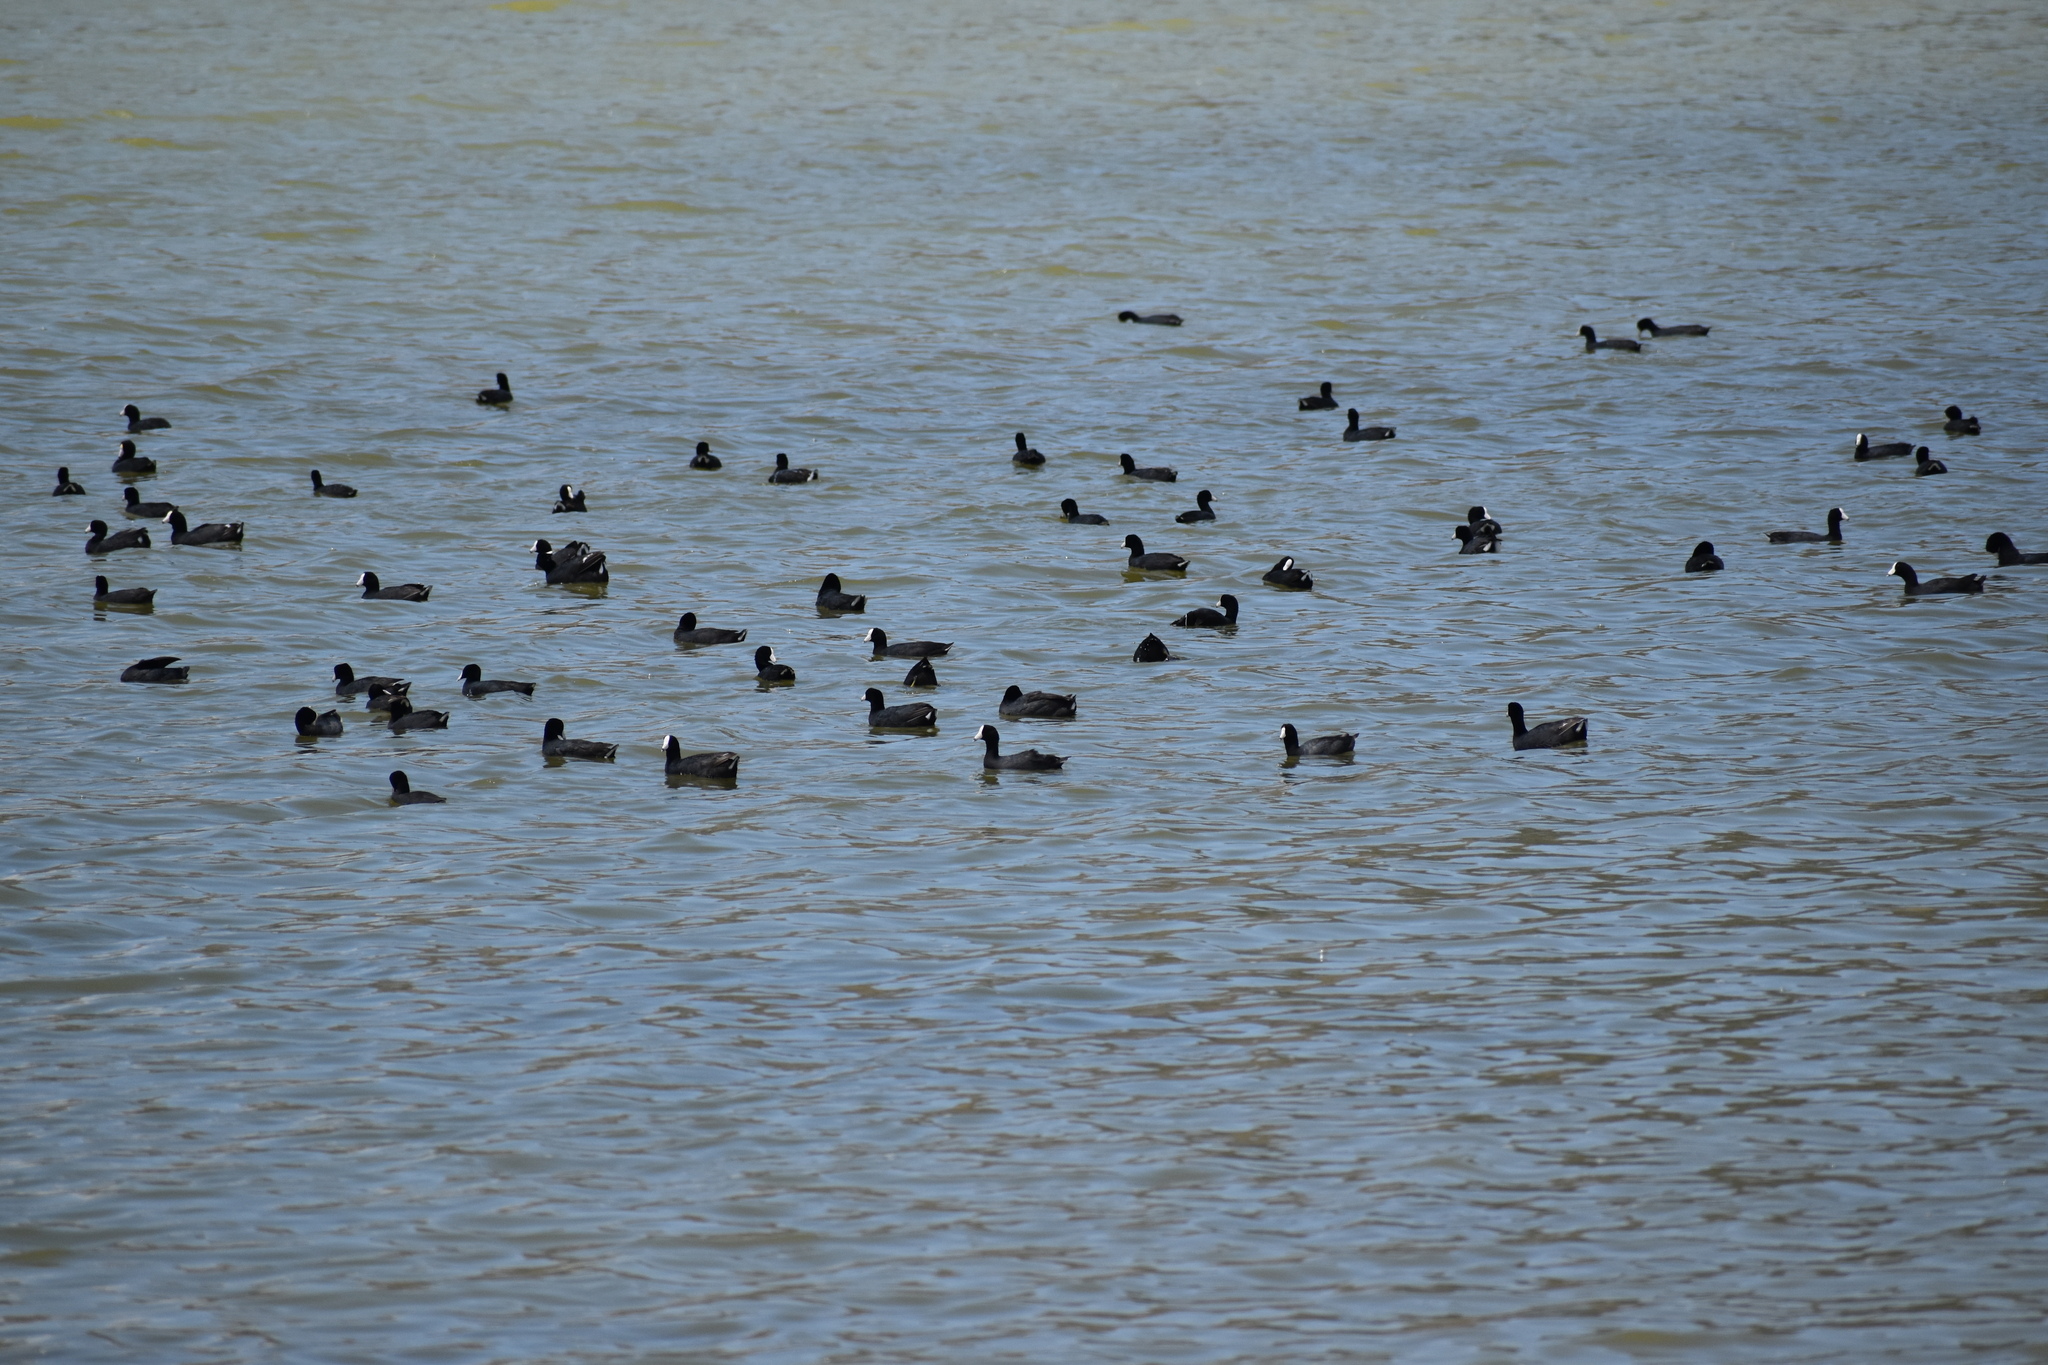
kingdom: Animalia
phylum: Chordata
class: Aves
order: Gruiformes
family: Rallidae
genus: Fulica
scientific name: Fulica americana
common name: American coot
